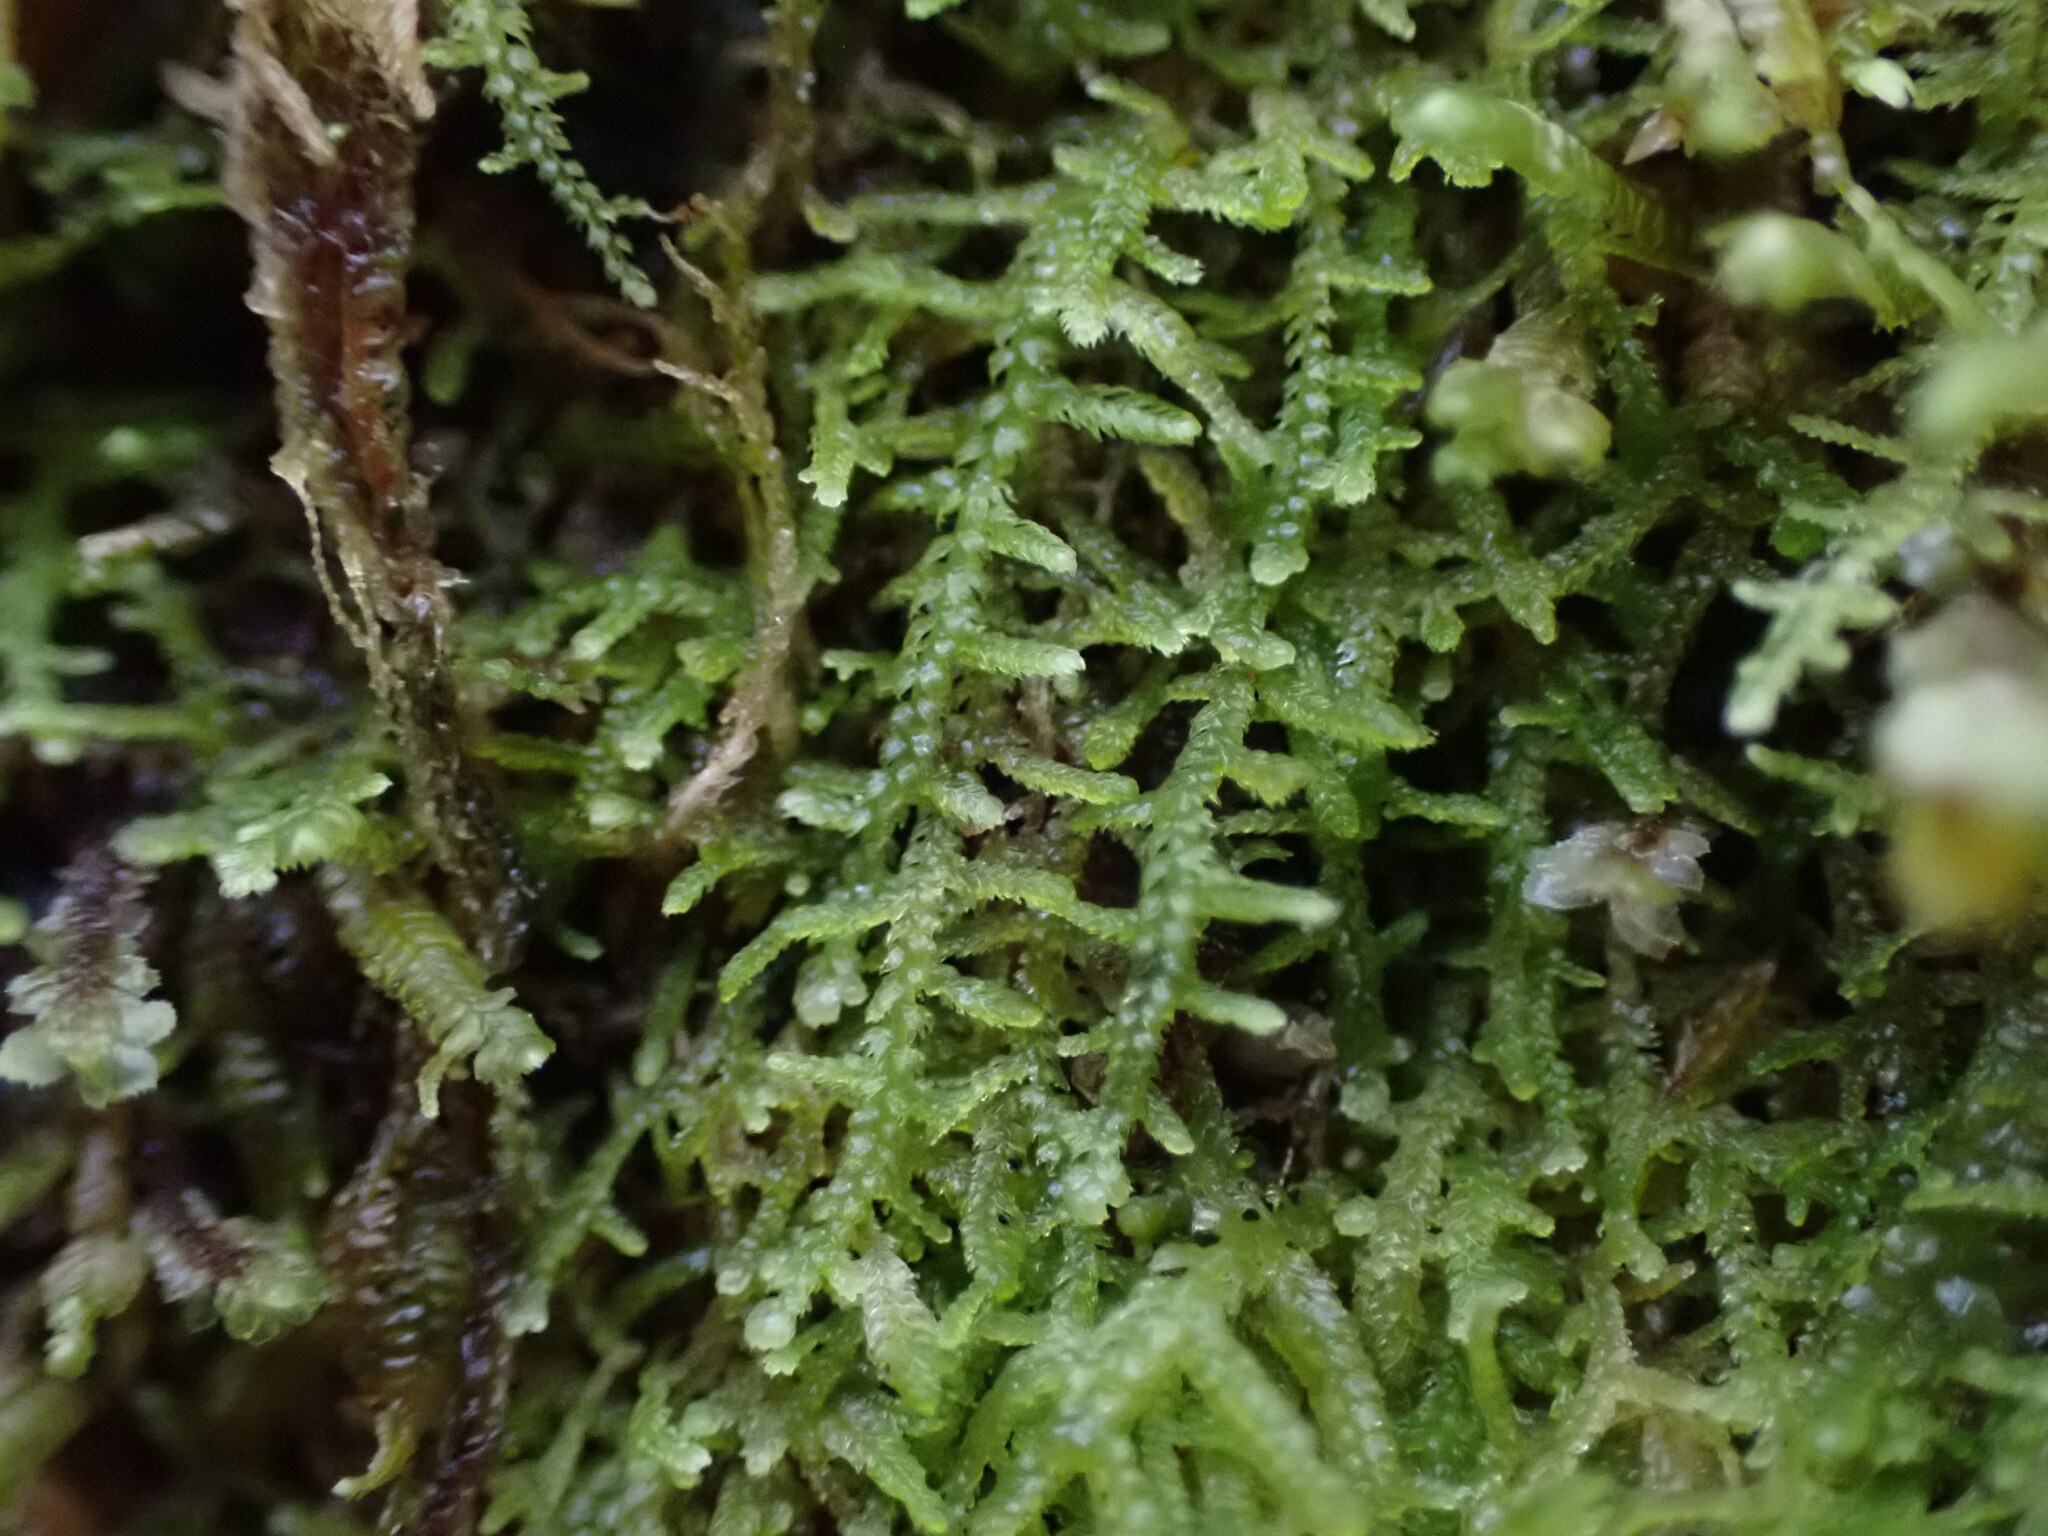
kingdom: Plantae
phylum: Marchantiophyta
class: Jungermanniopsida
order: Jungermanniales
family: Lepidoziaceae
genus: Lepidozia
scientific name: Lepidozia reptans
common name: Creeping fingerwort
